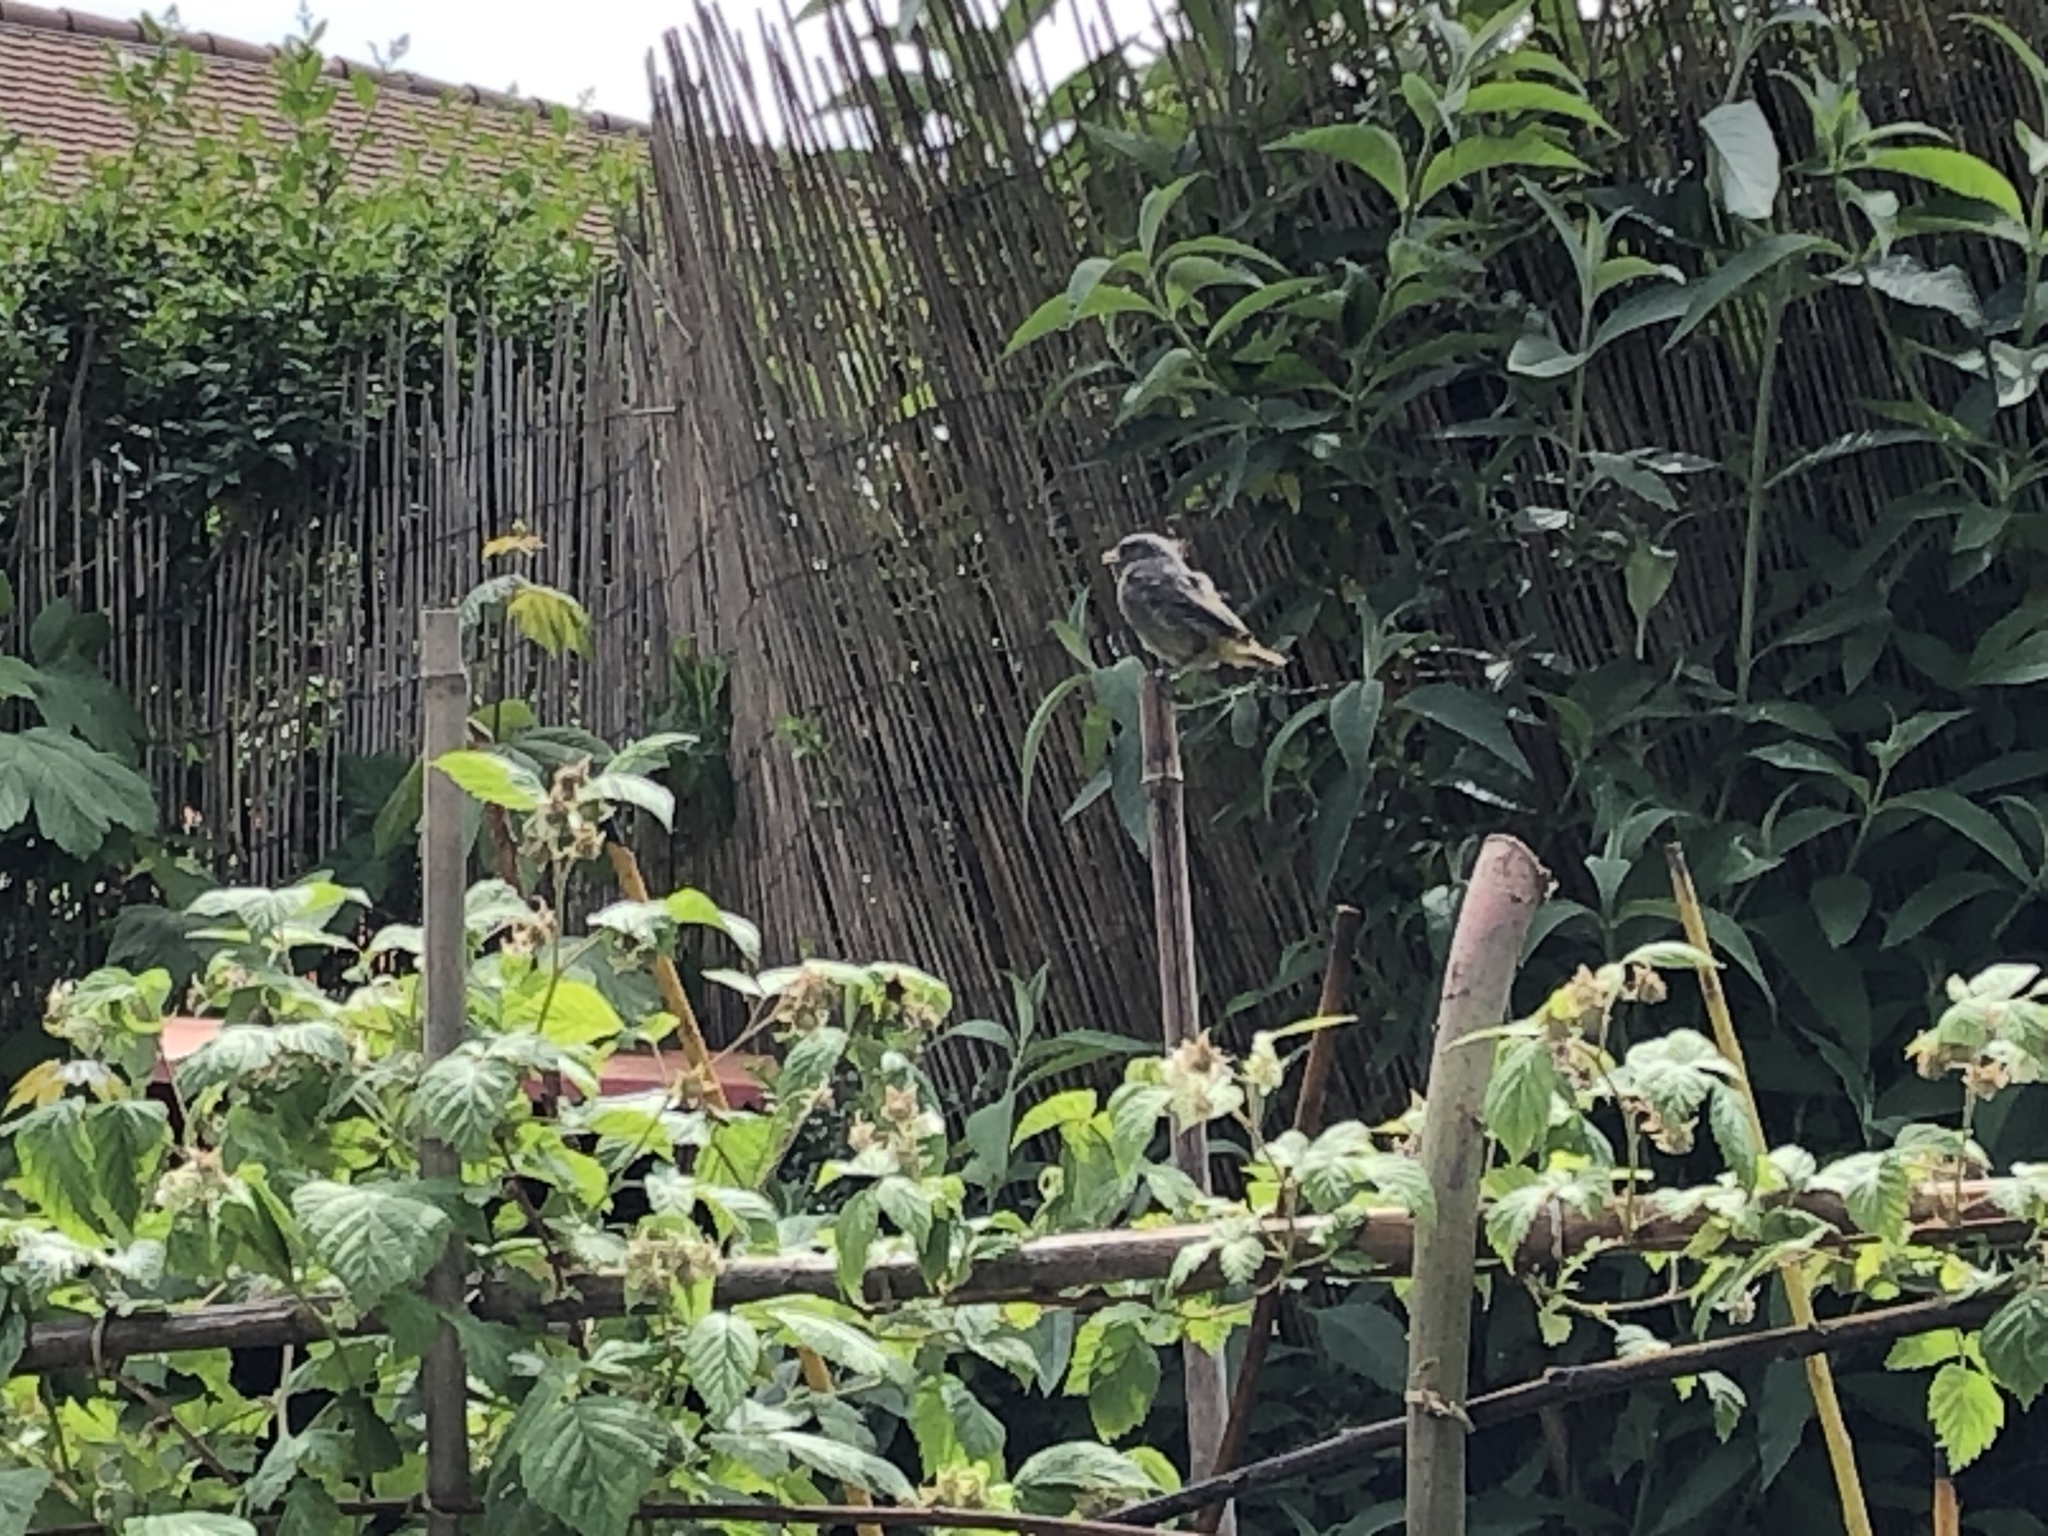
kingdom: Animalia
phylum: Chordata
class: Aves
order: Passeriformes
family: Muscicapidae
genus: Phoenicurus
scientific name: Phoenicurus ochruros
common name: Black redstart
